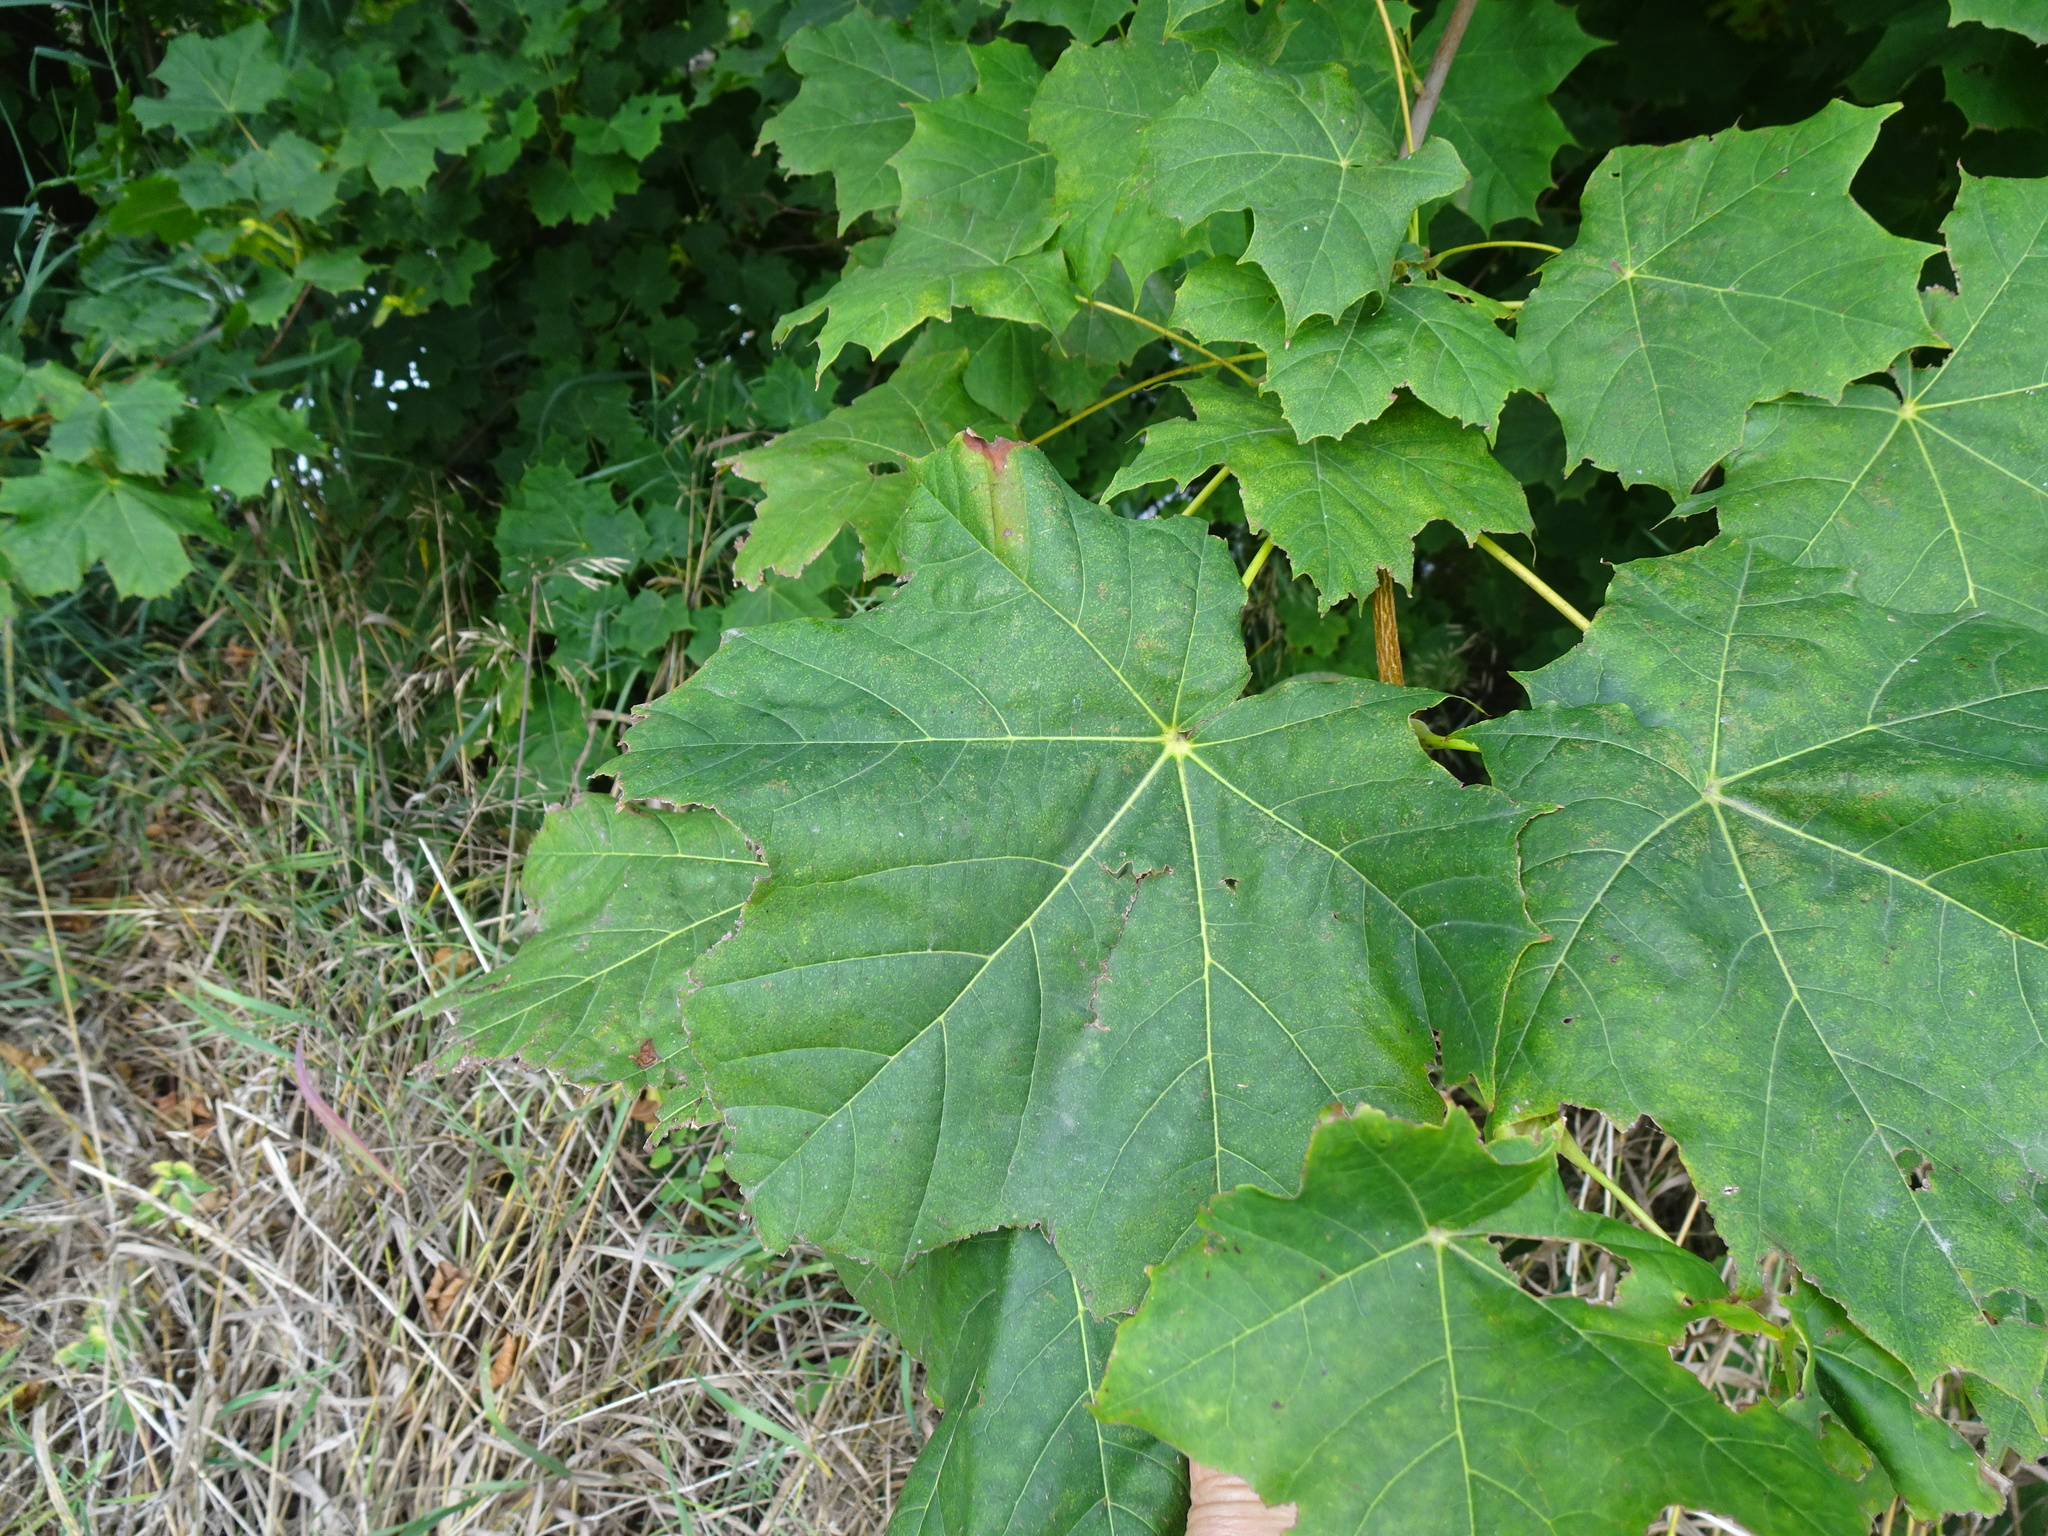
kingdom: Plantae
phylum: Tracheophyta
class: Magnoliopsida
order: Sapindales
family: Sapindaceae
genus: Acer
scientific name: Acer platanoides
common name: Norway maple
